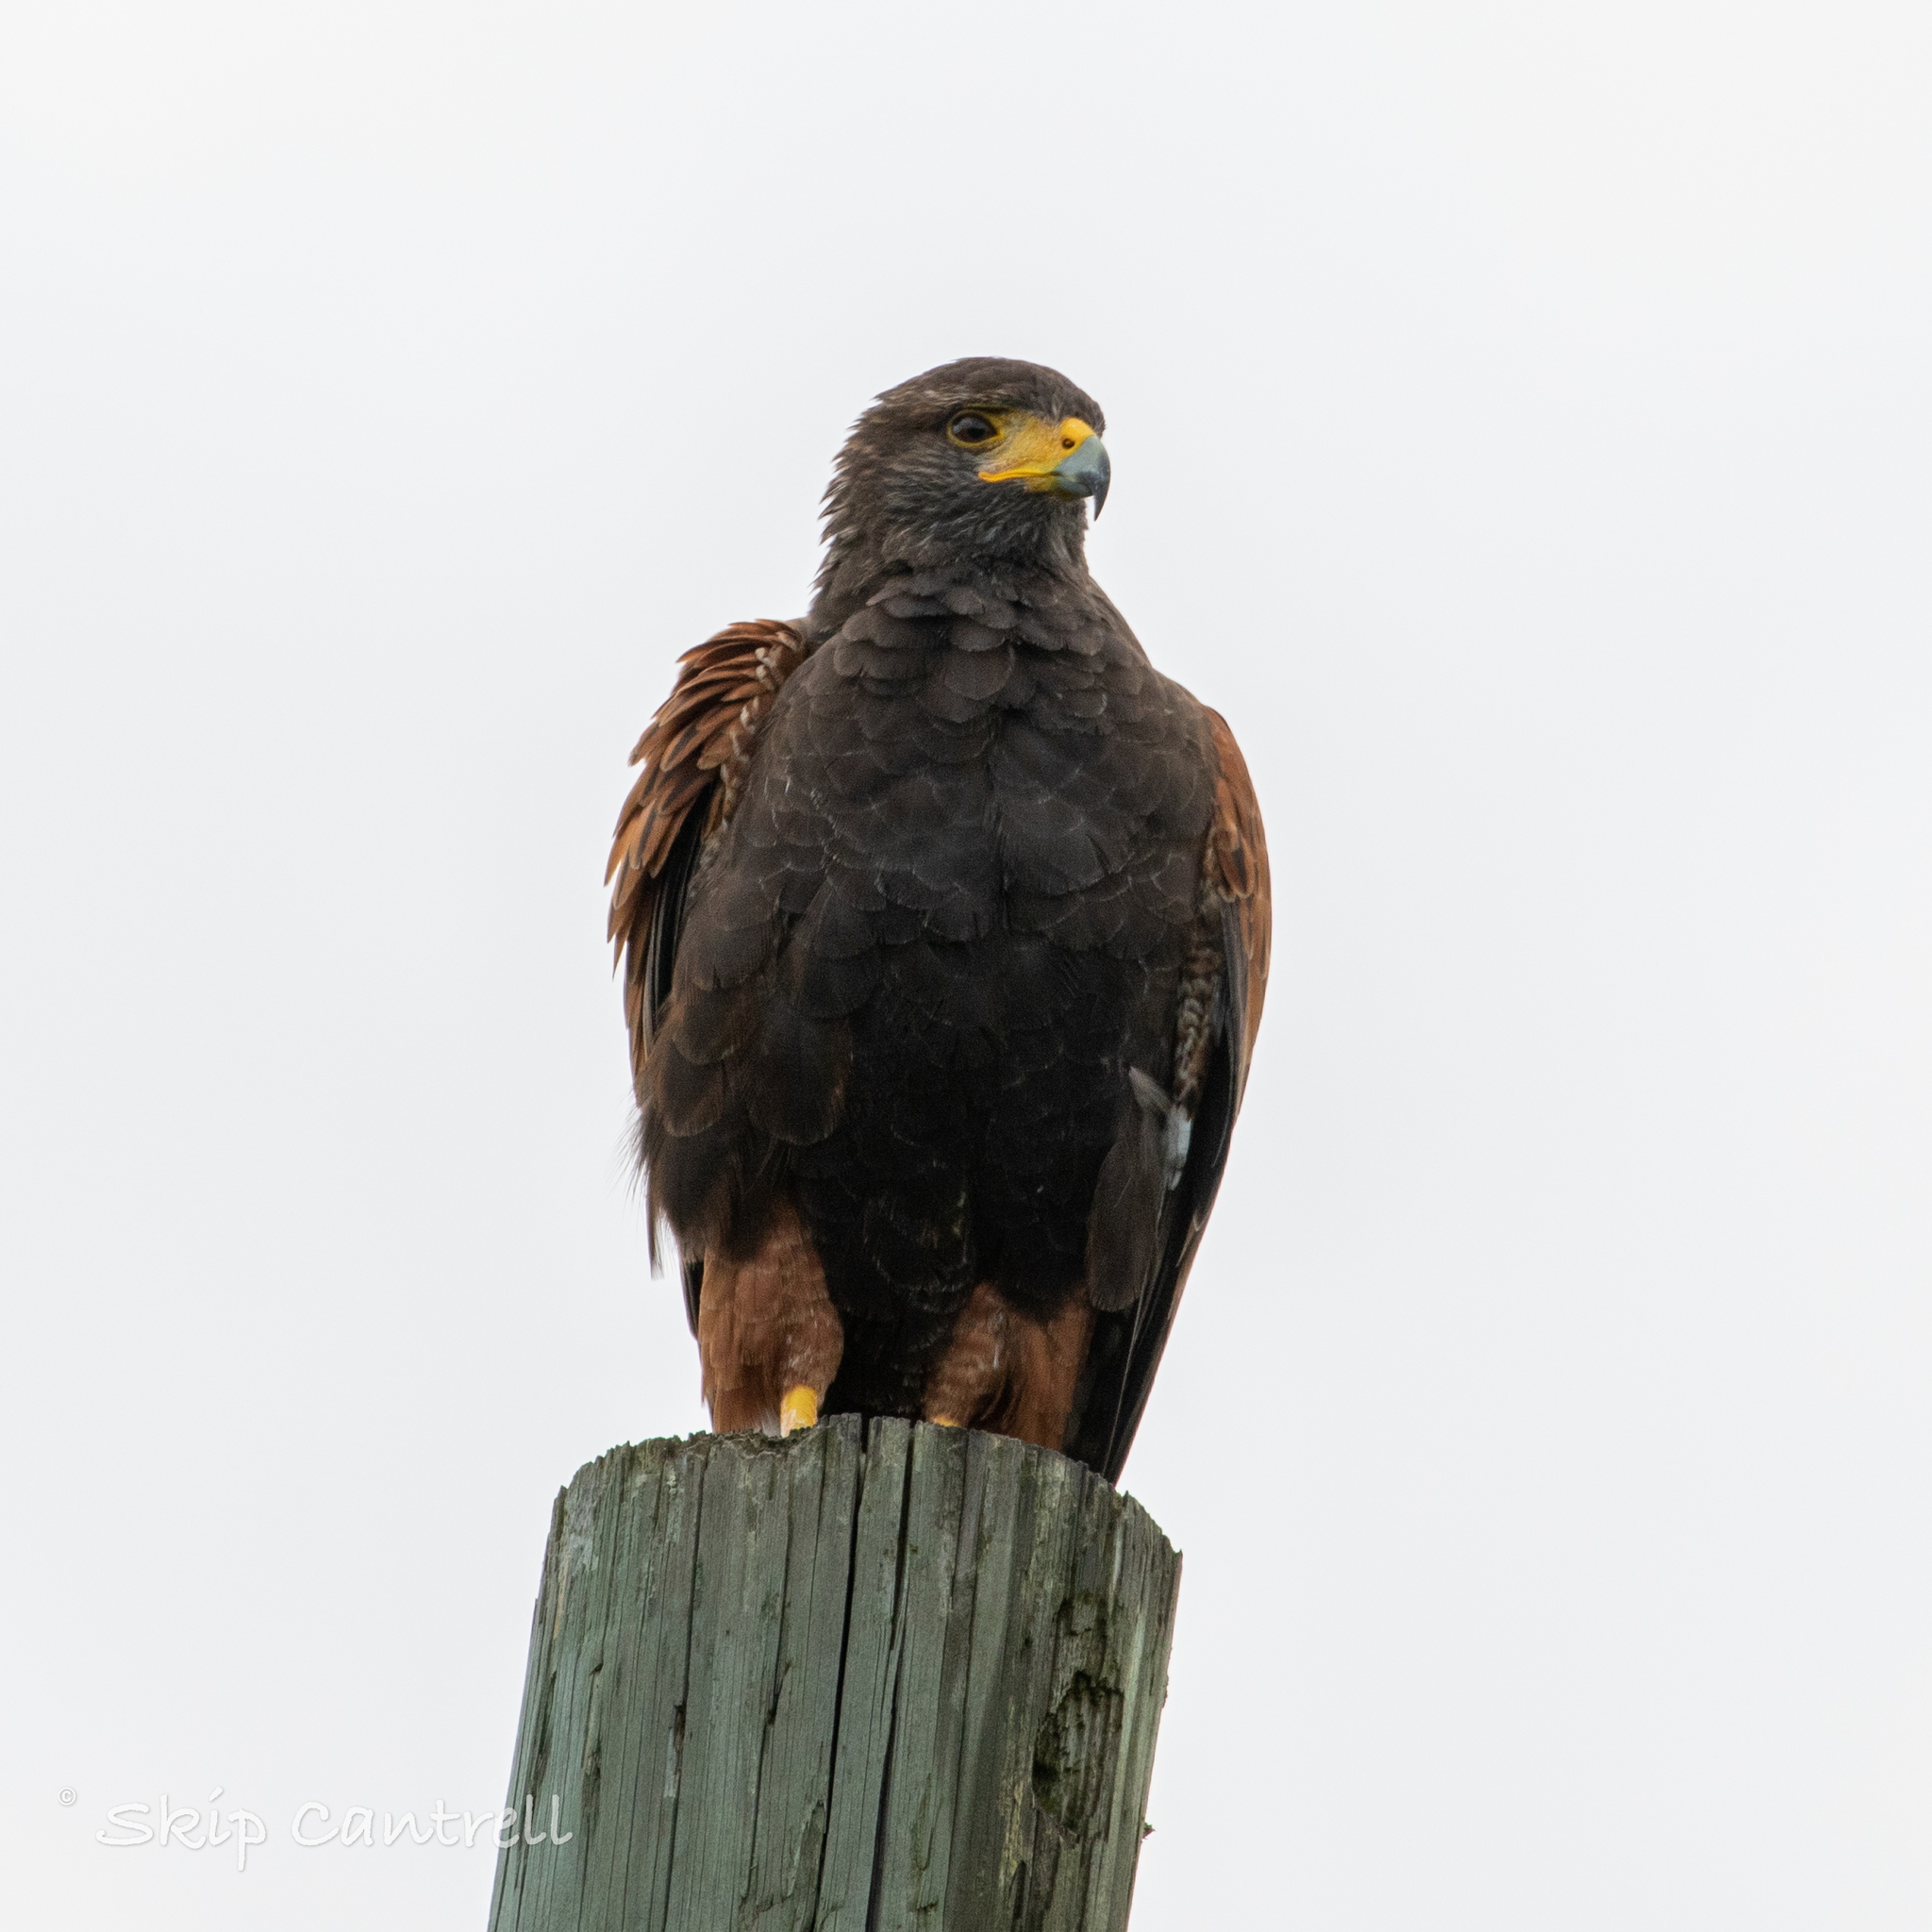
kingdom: Animalia
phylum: Chordata
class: Aves
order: Accipitriformes
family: Accipitridae
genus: Parabuteo
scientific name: Parabuteo unicinctus
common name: Harris's hawk
